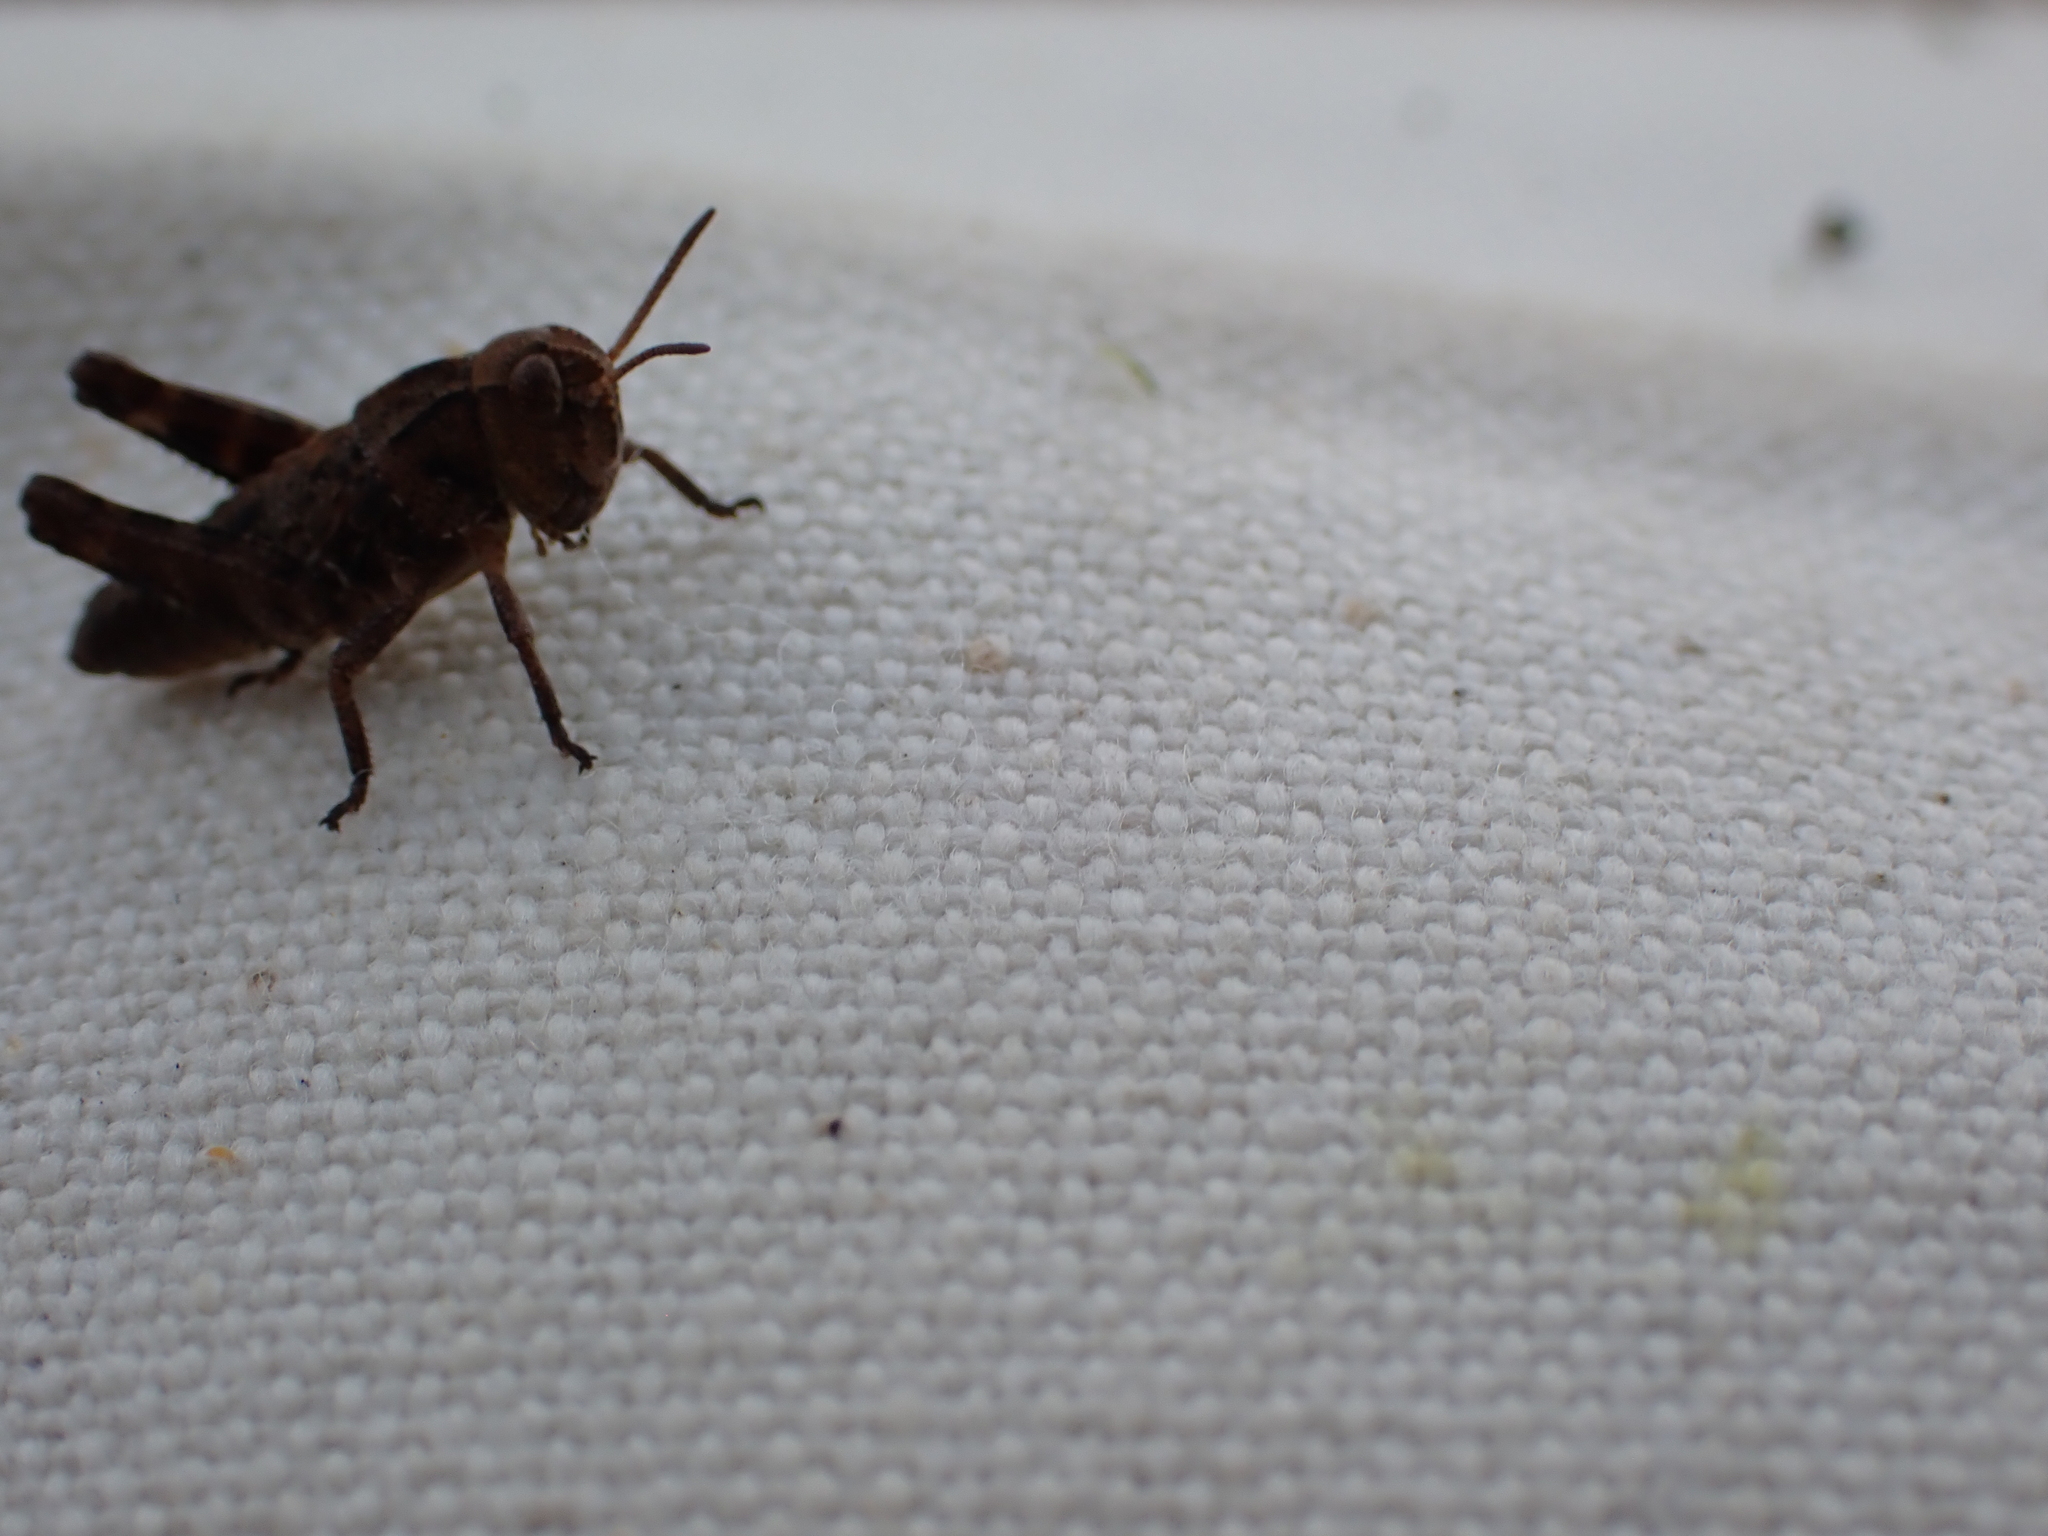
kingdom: Animalia
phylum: Arthropoda
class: Insecta
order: Orthoptera
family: Acrididae
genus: Camnula
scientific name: Camnula pellucida
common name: Clear-winged grasshopper
